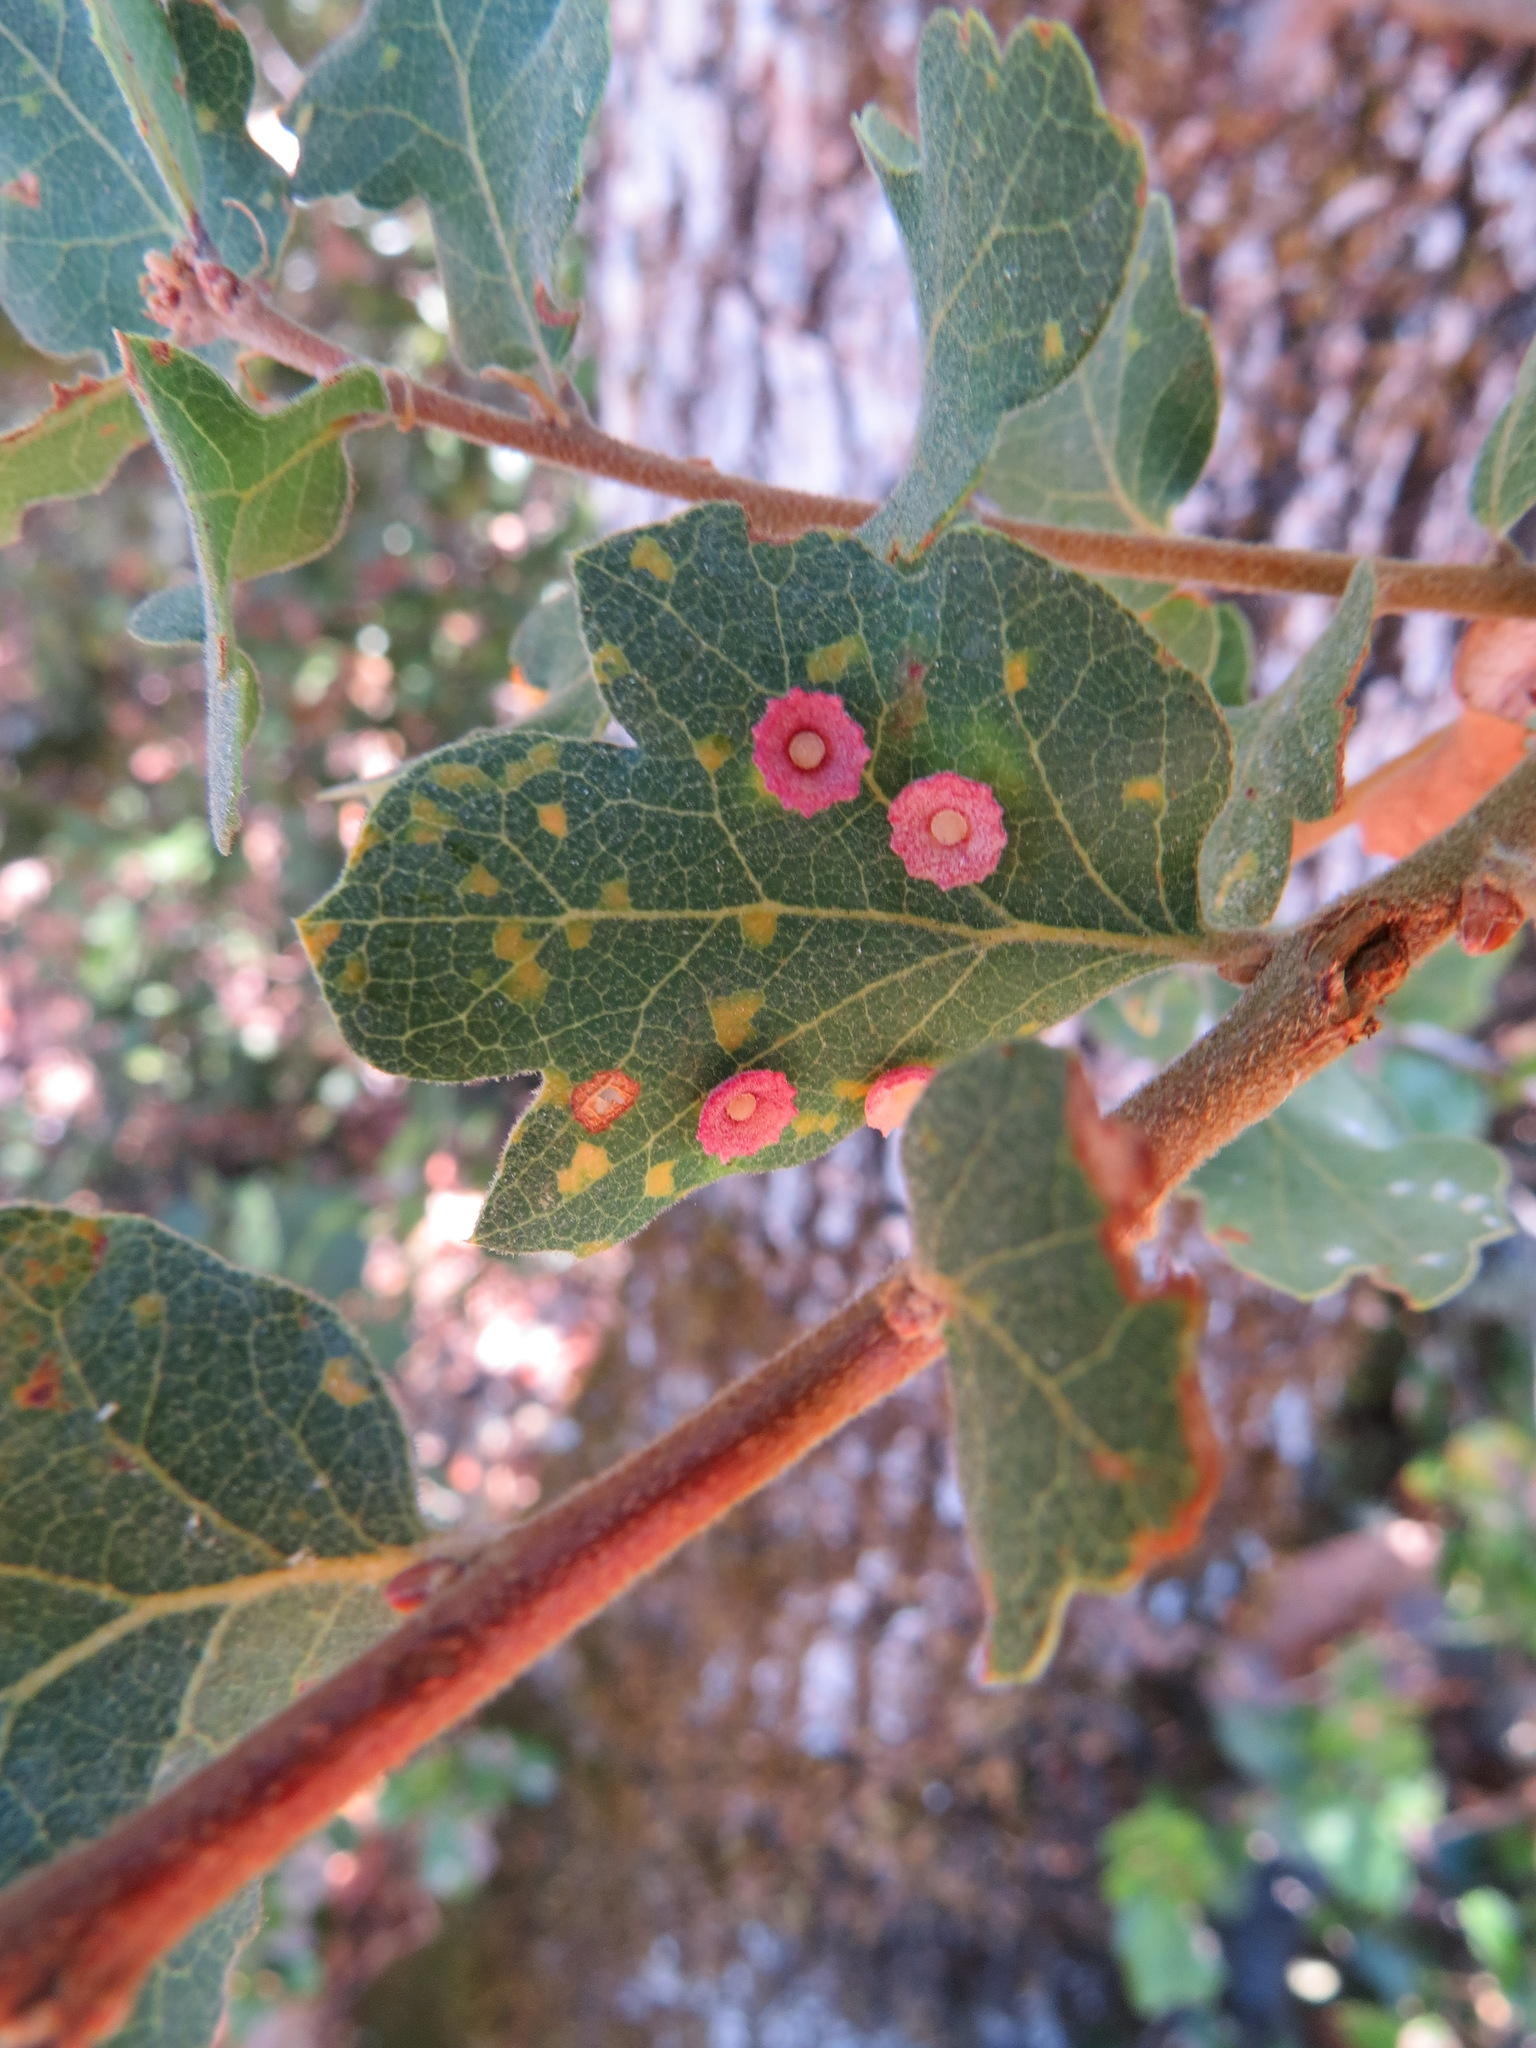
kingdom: Animalia
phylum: Arthropoda
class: Insecta
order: Hymenoptera
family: Cynipidae
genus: Andricus
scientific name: Andricus
